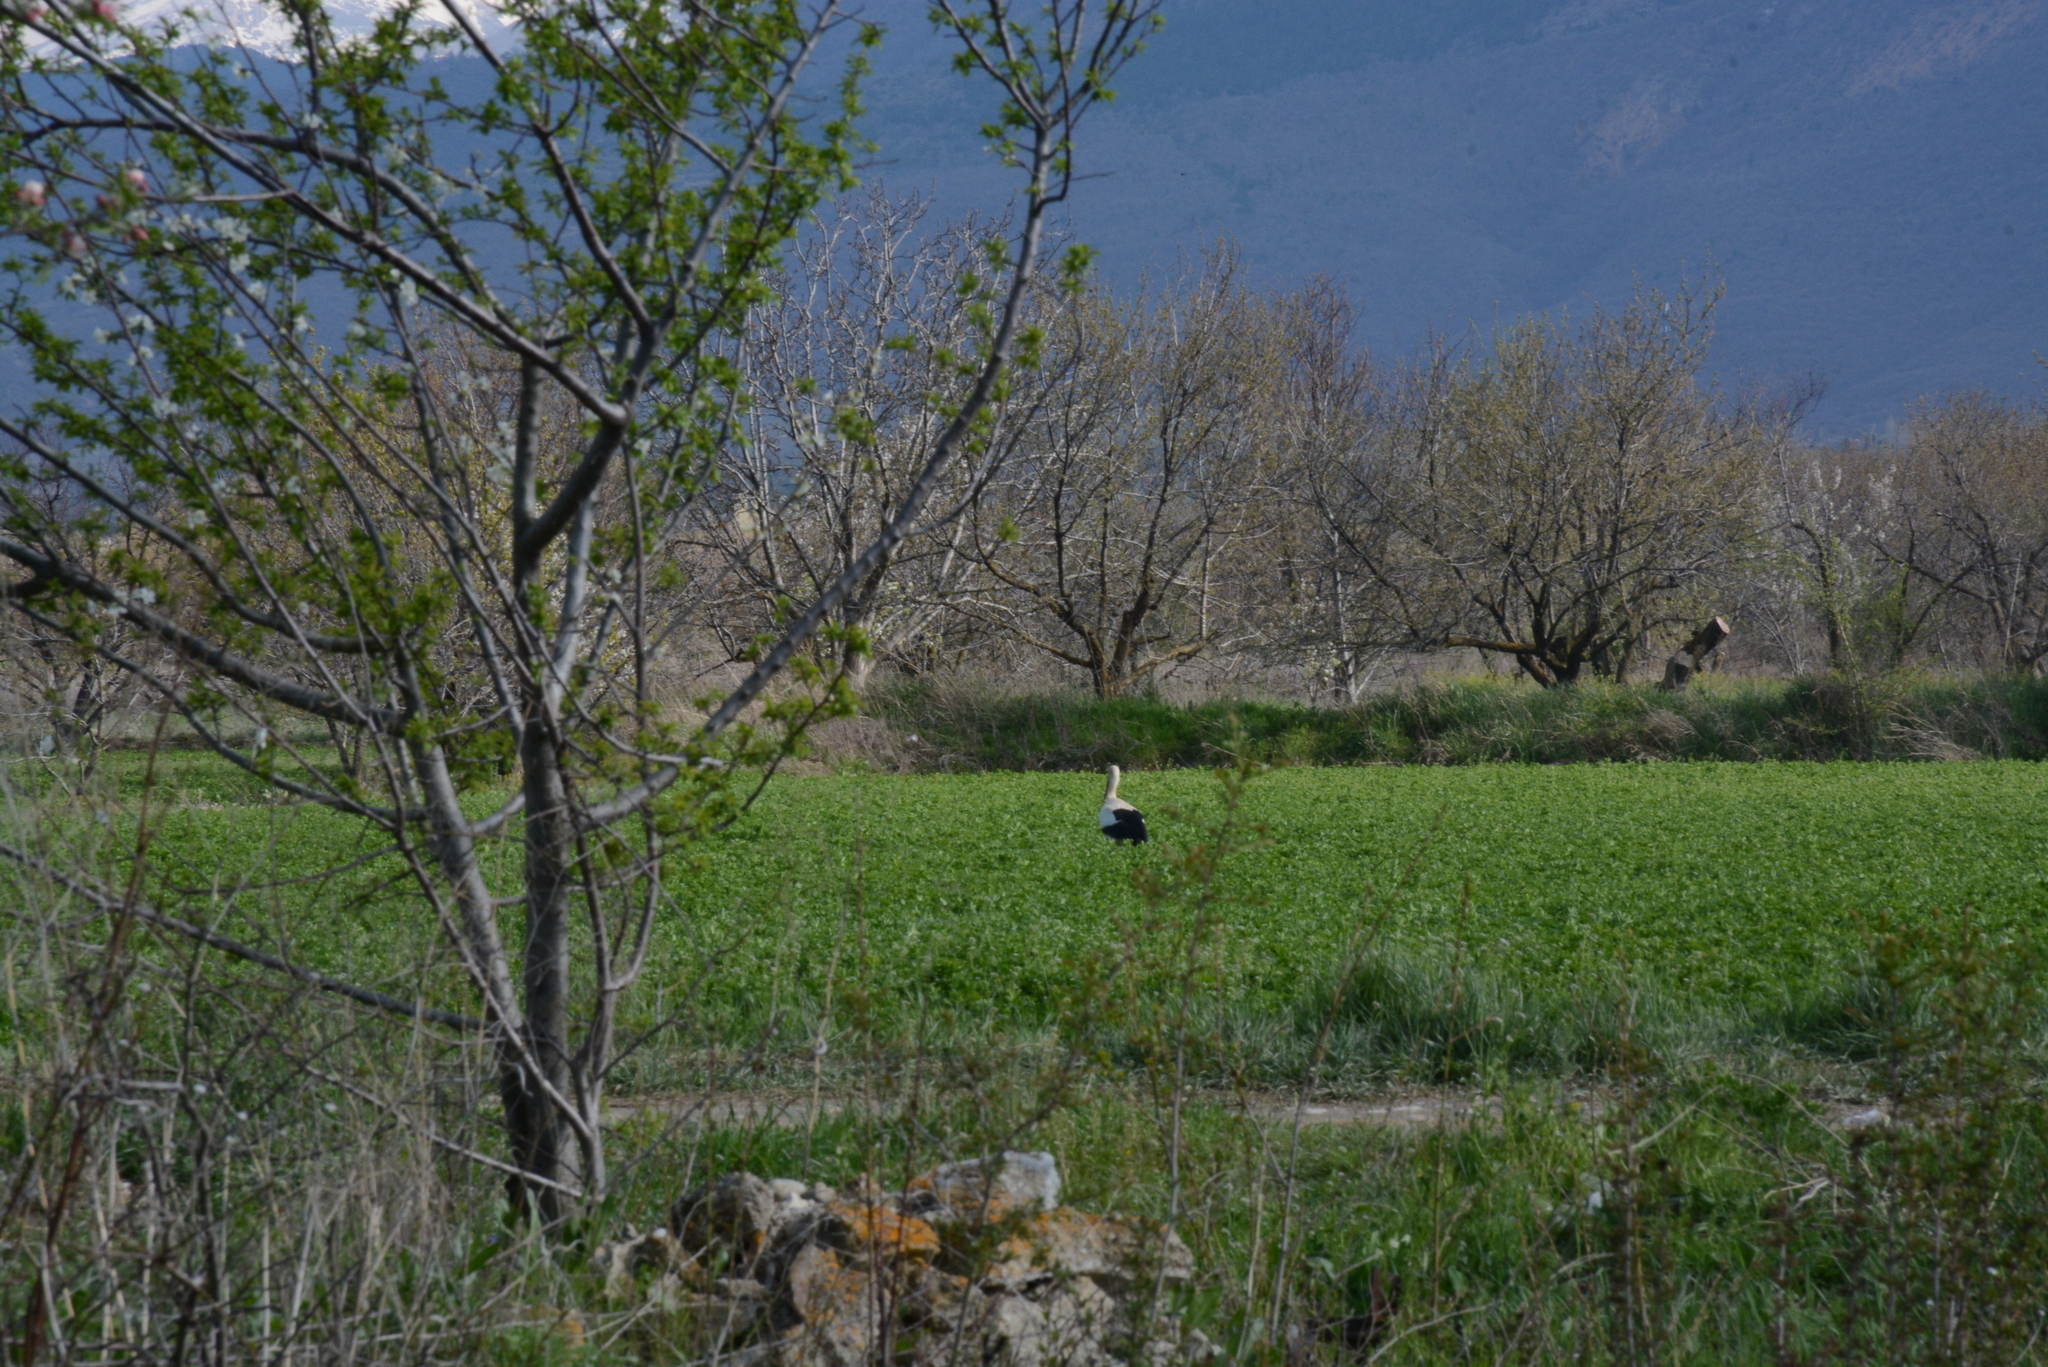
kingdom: Animalia
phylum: Chordata
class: Aves
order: Ciconiiformes
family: Ciconiidae
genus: Ciconia
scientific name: Ciconia ciconia
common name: White stork
